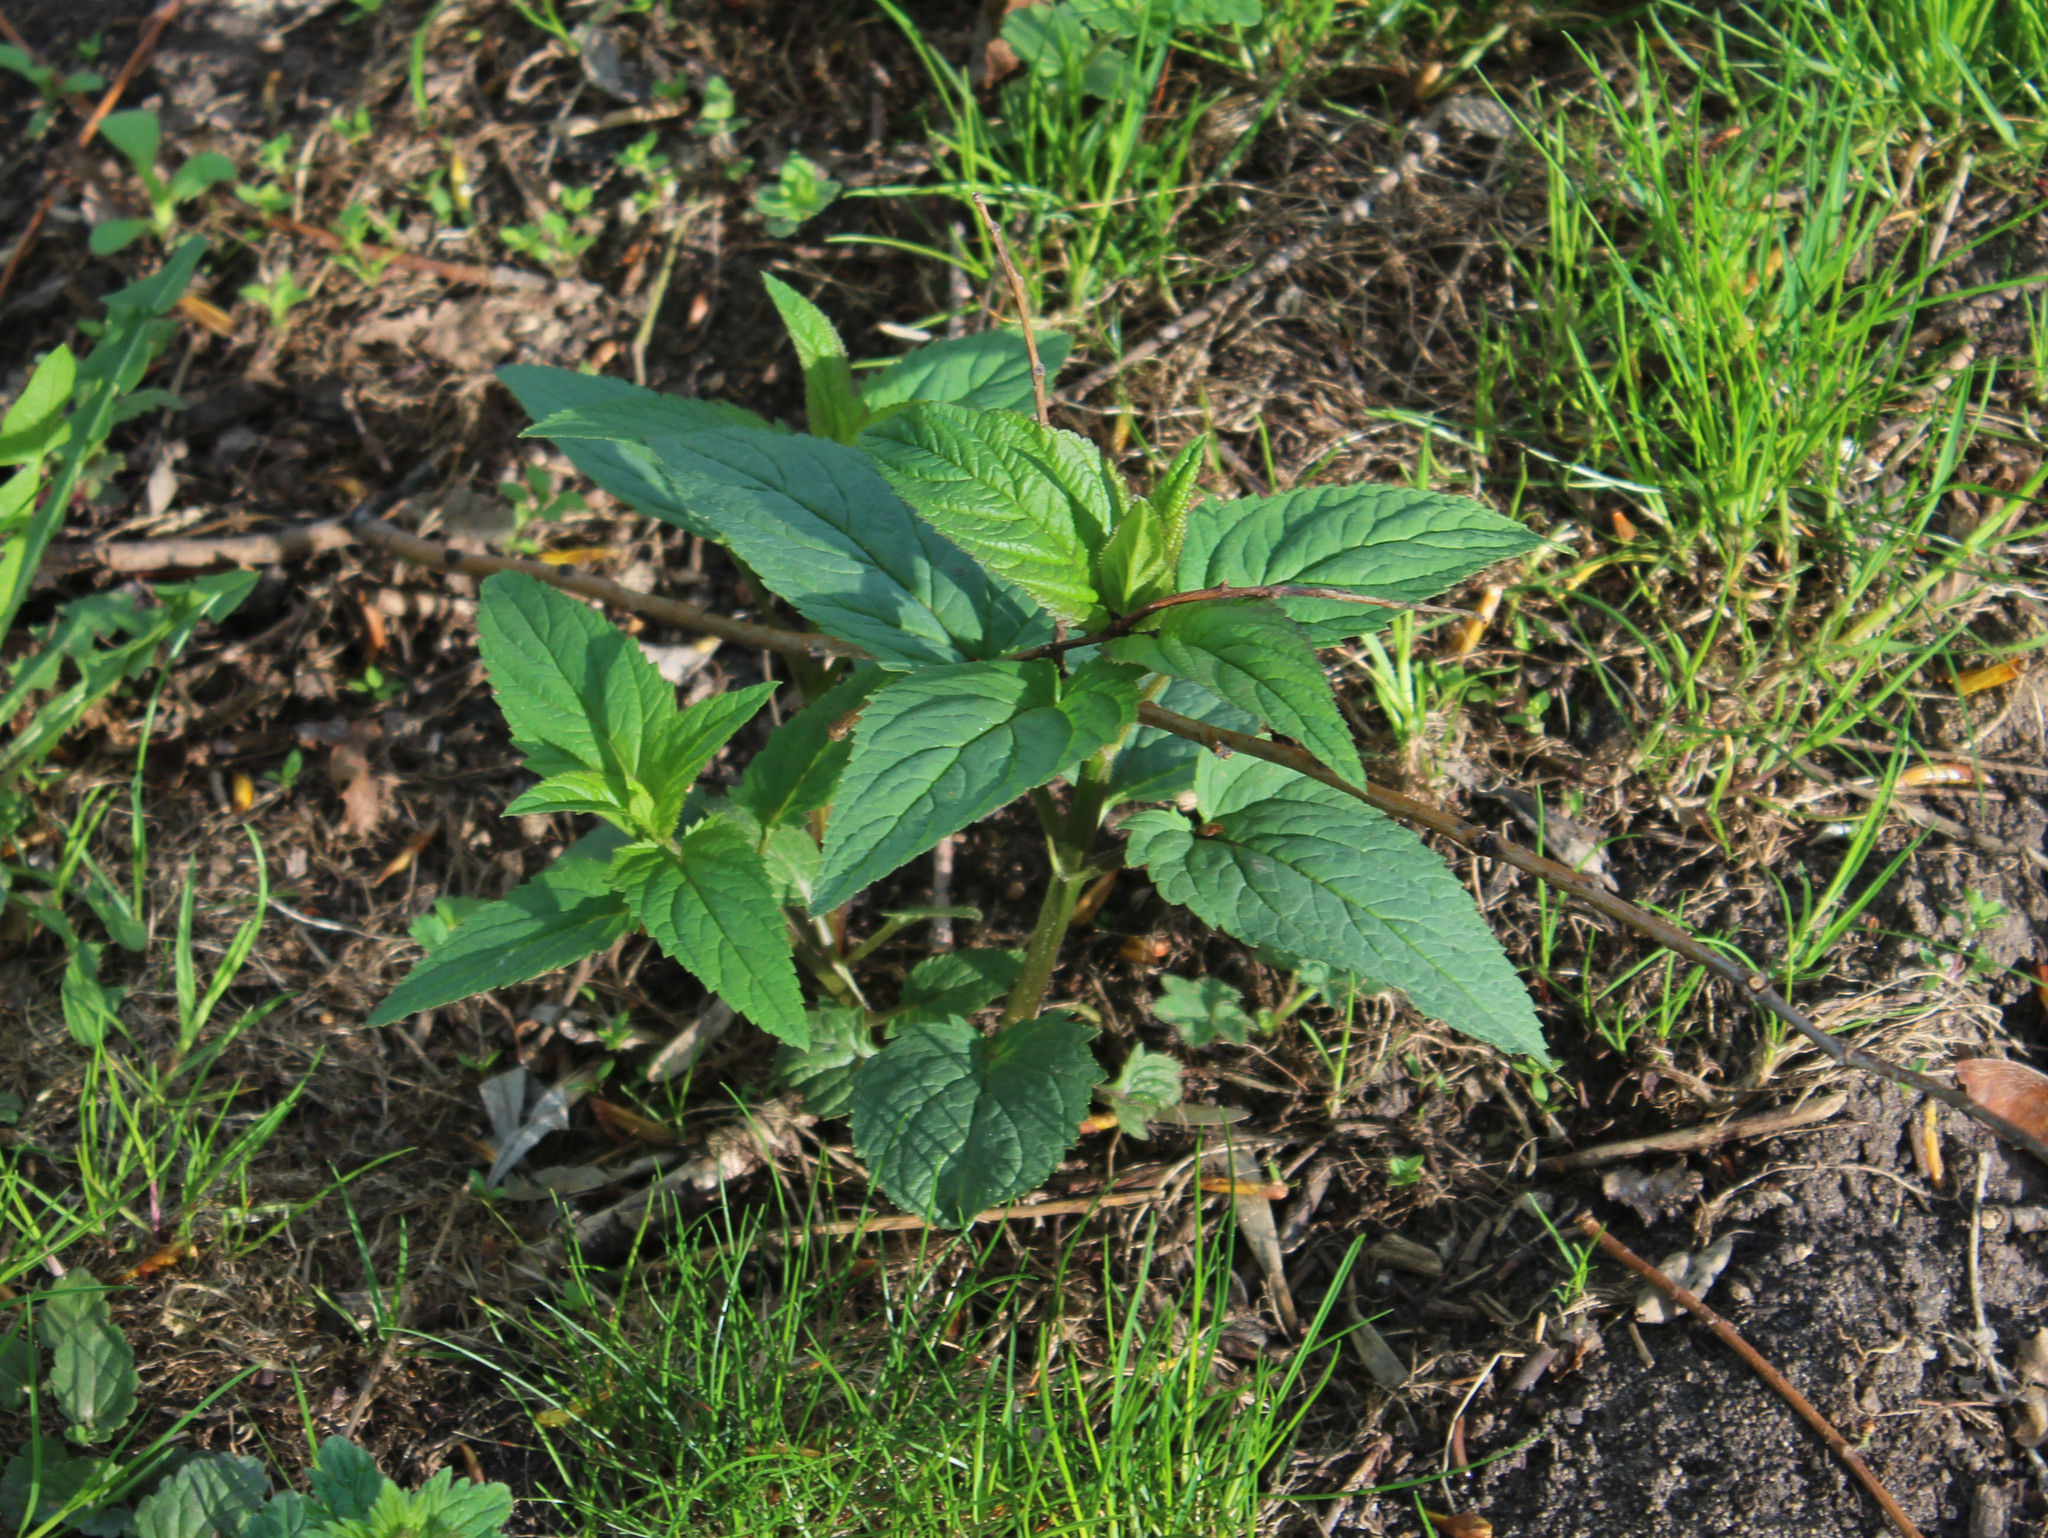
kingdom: Plantae
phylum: Tracheophyta
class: Magnoliopsida
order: Lamiales
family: Scrophulariaceae
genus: Scrophularia
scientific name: Scrophularia nodosa
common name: Common figwort
